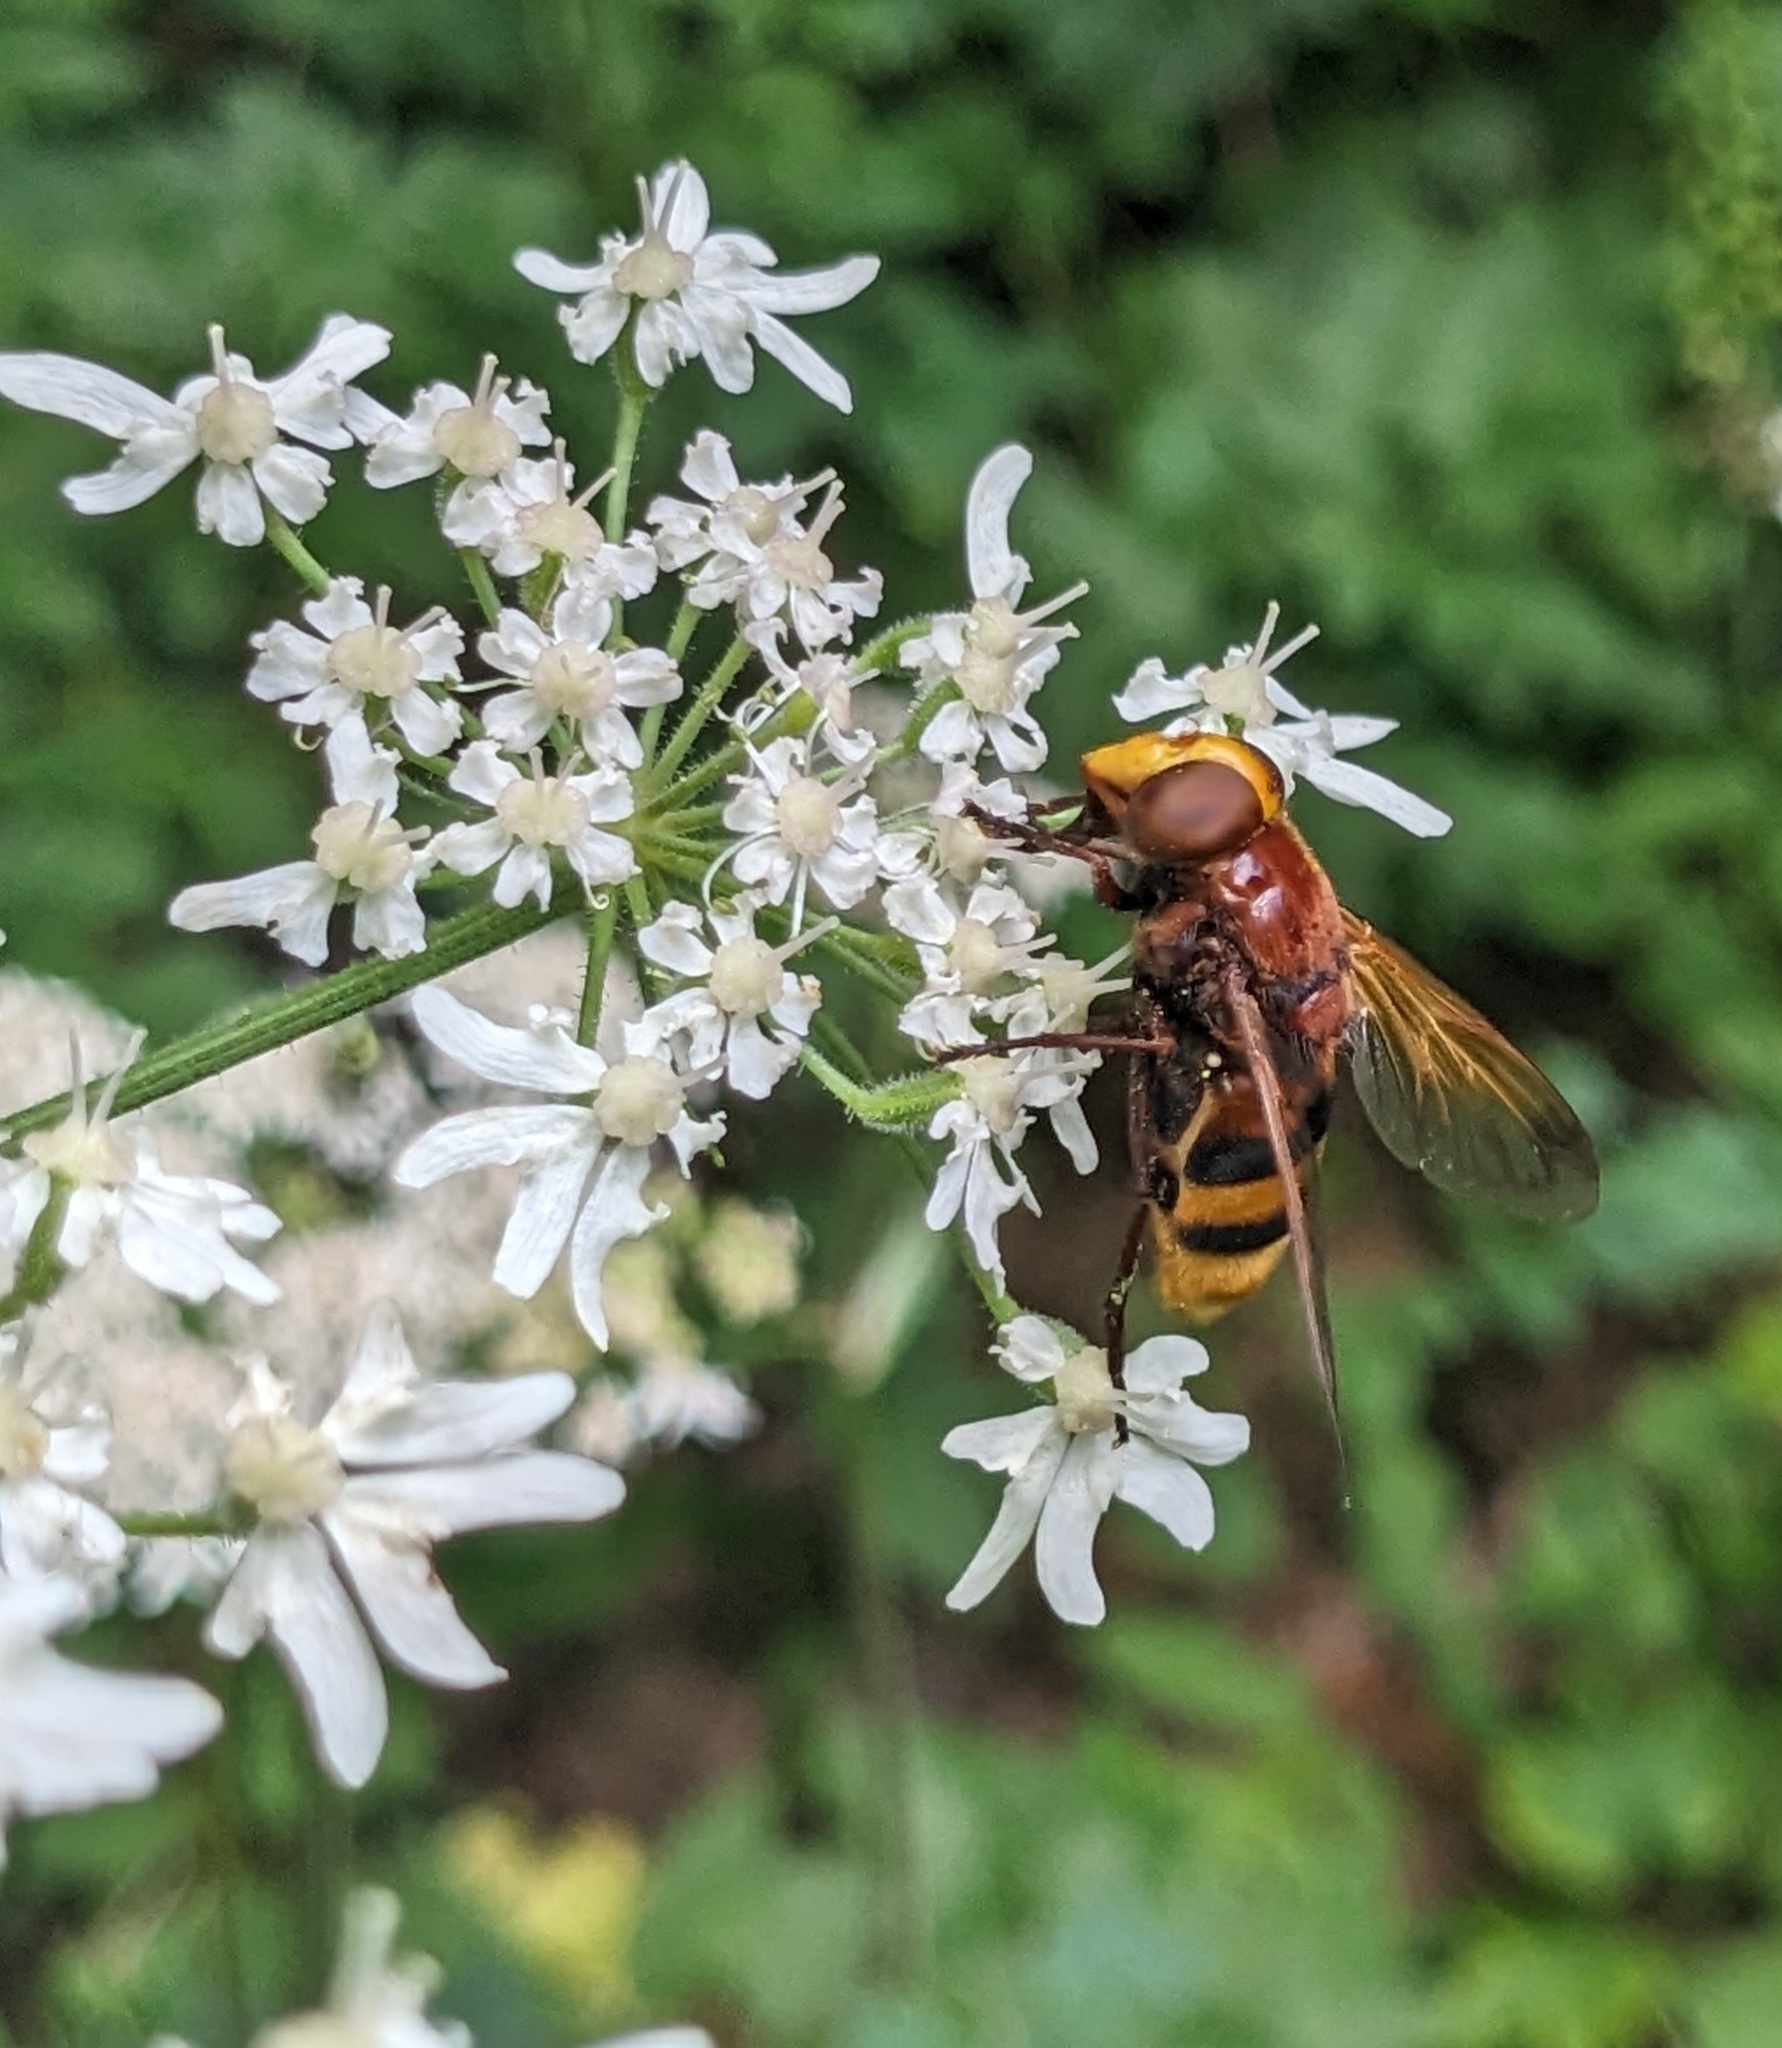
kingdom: Animalia
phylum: Arthropoda
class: Insecta
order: Diptera
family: Syrphidae
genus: Volucella
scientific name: Volucella zonaria
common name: Hornet hoverfly
